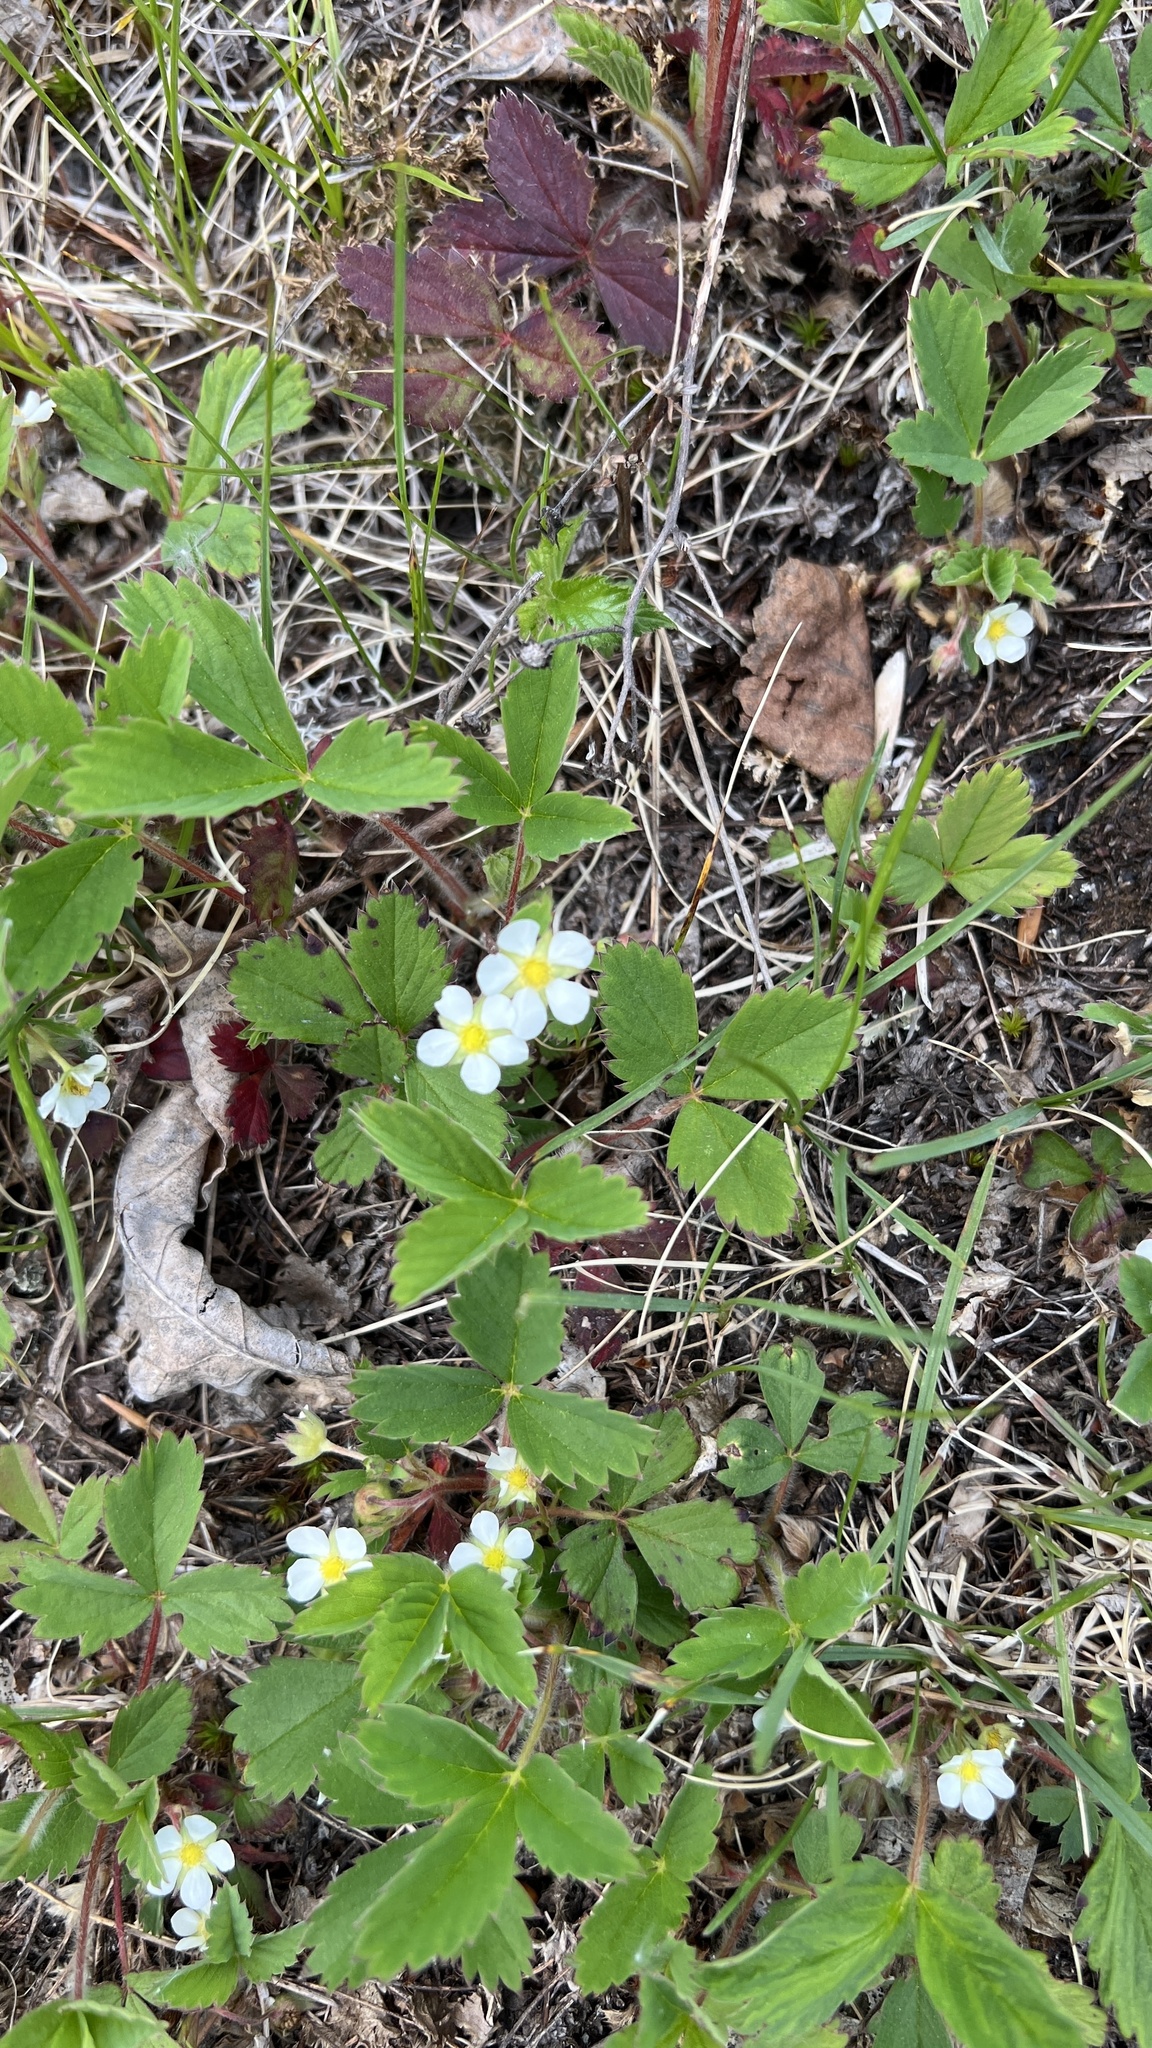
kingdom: Plantae
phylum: Tracheophyta
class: Magnoliopsida
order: Rosales
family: Rosaceae
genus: Fragaria
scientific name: Fragaria virginiana
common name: Thickleaved wild strawberry
